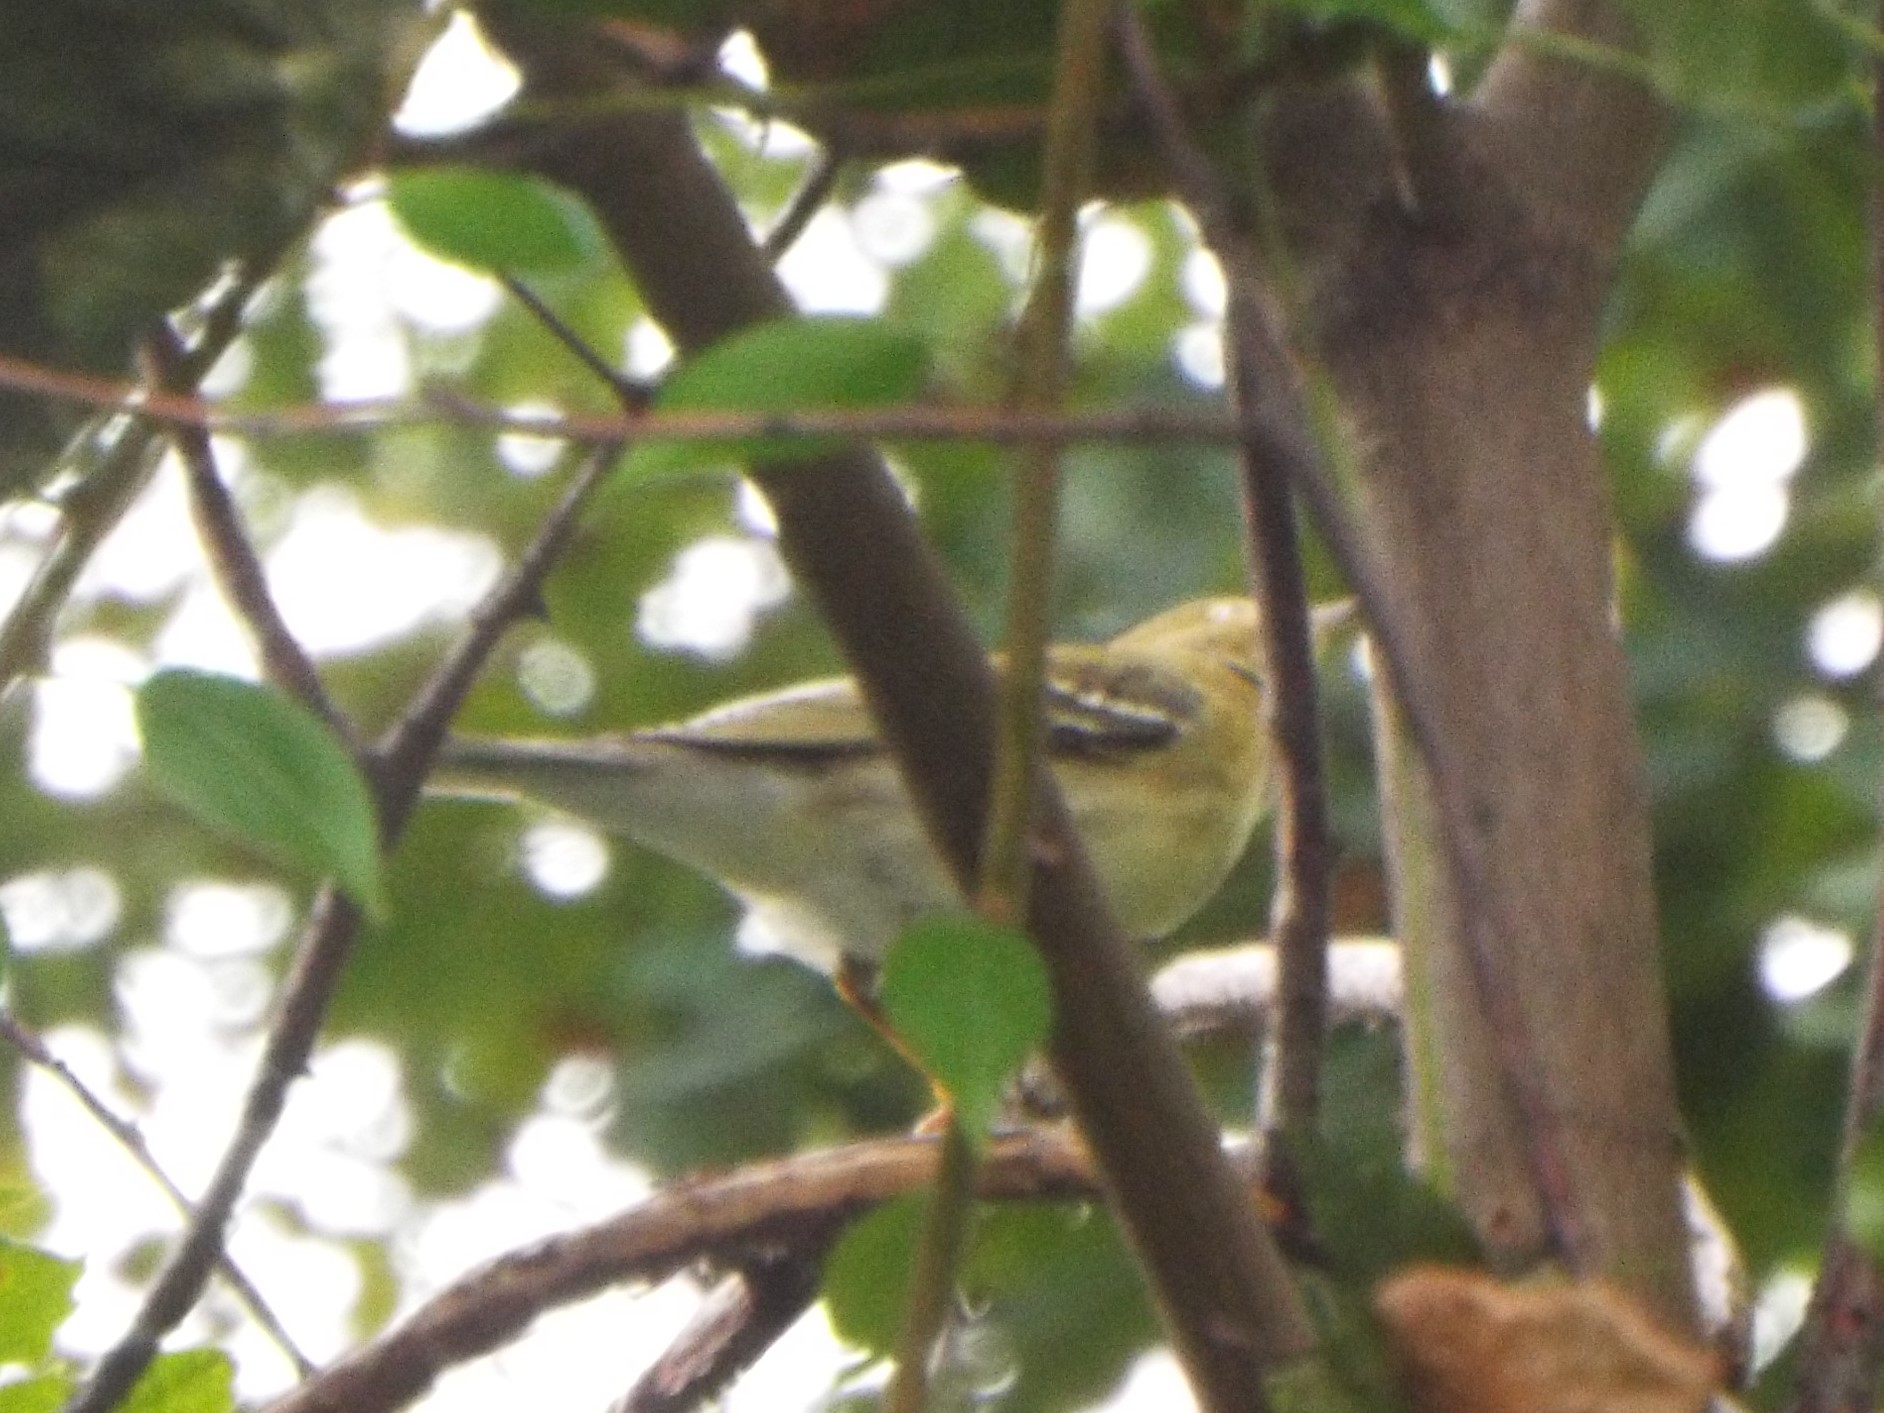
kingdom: Animalia
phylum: Chordata
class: Aves
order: Passeriformes
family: Parulidae
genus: Setophaga
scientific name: Setophaga striata
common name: Blackpoll warbler
